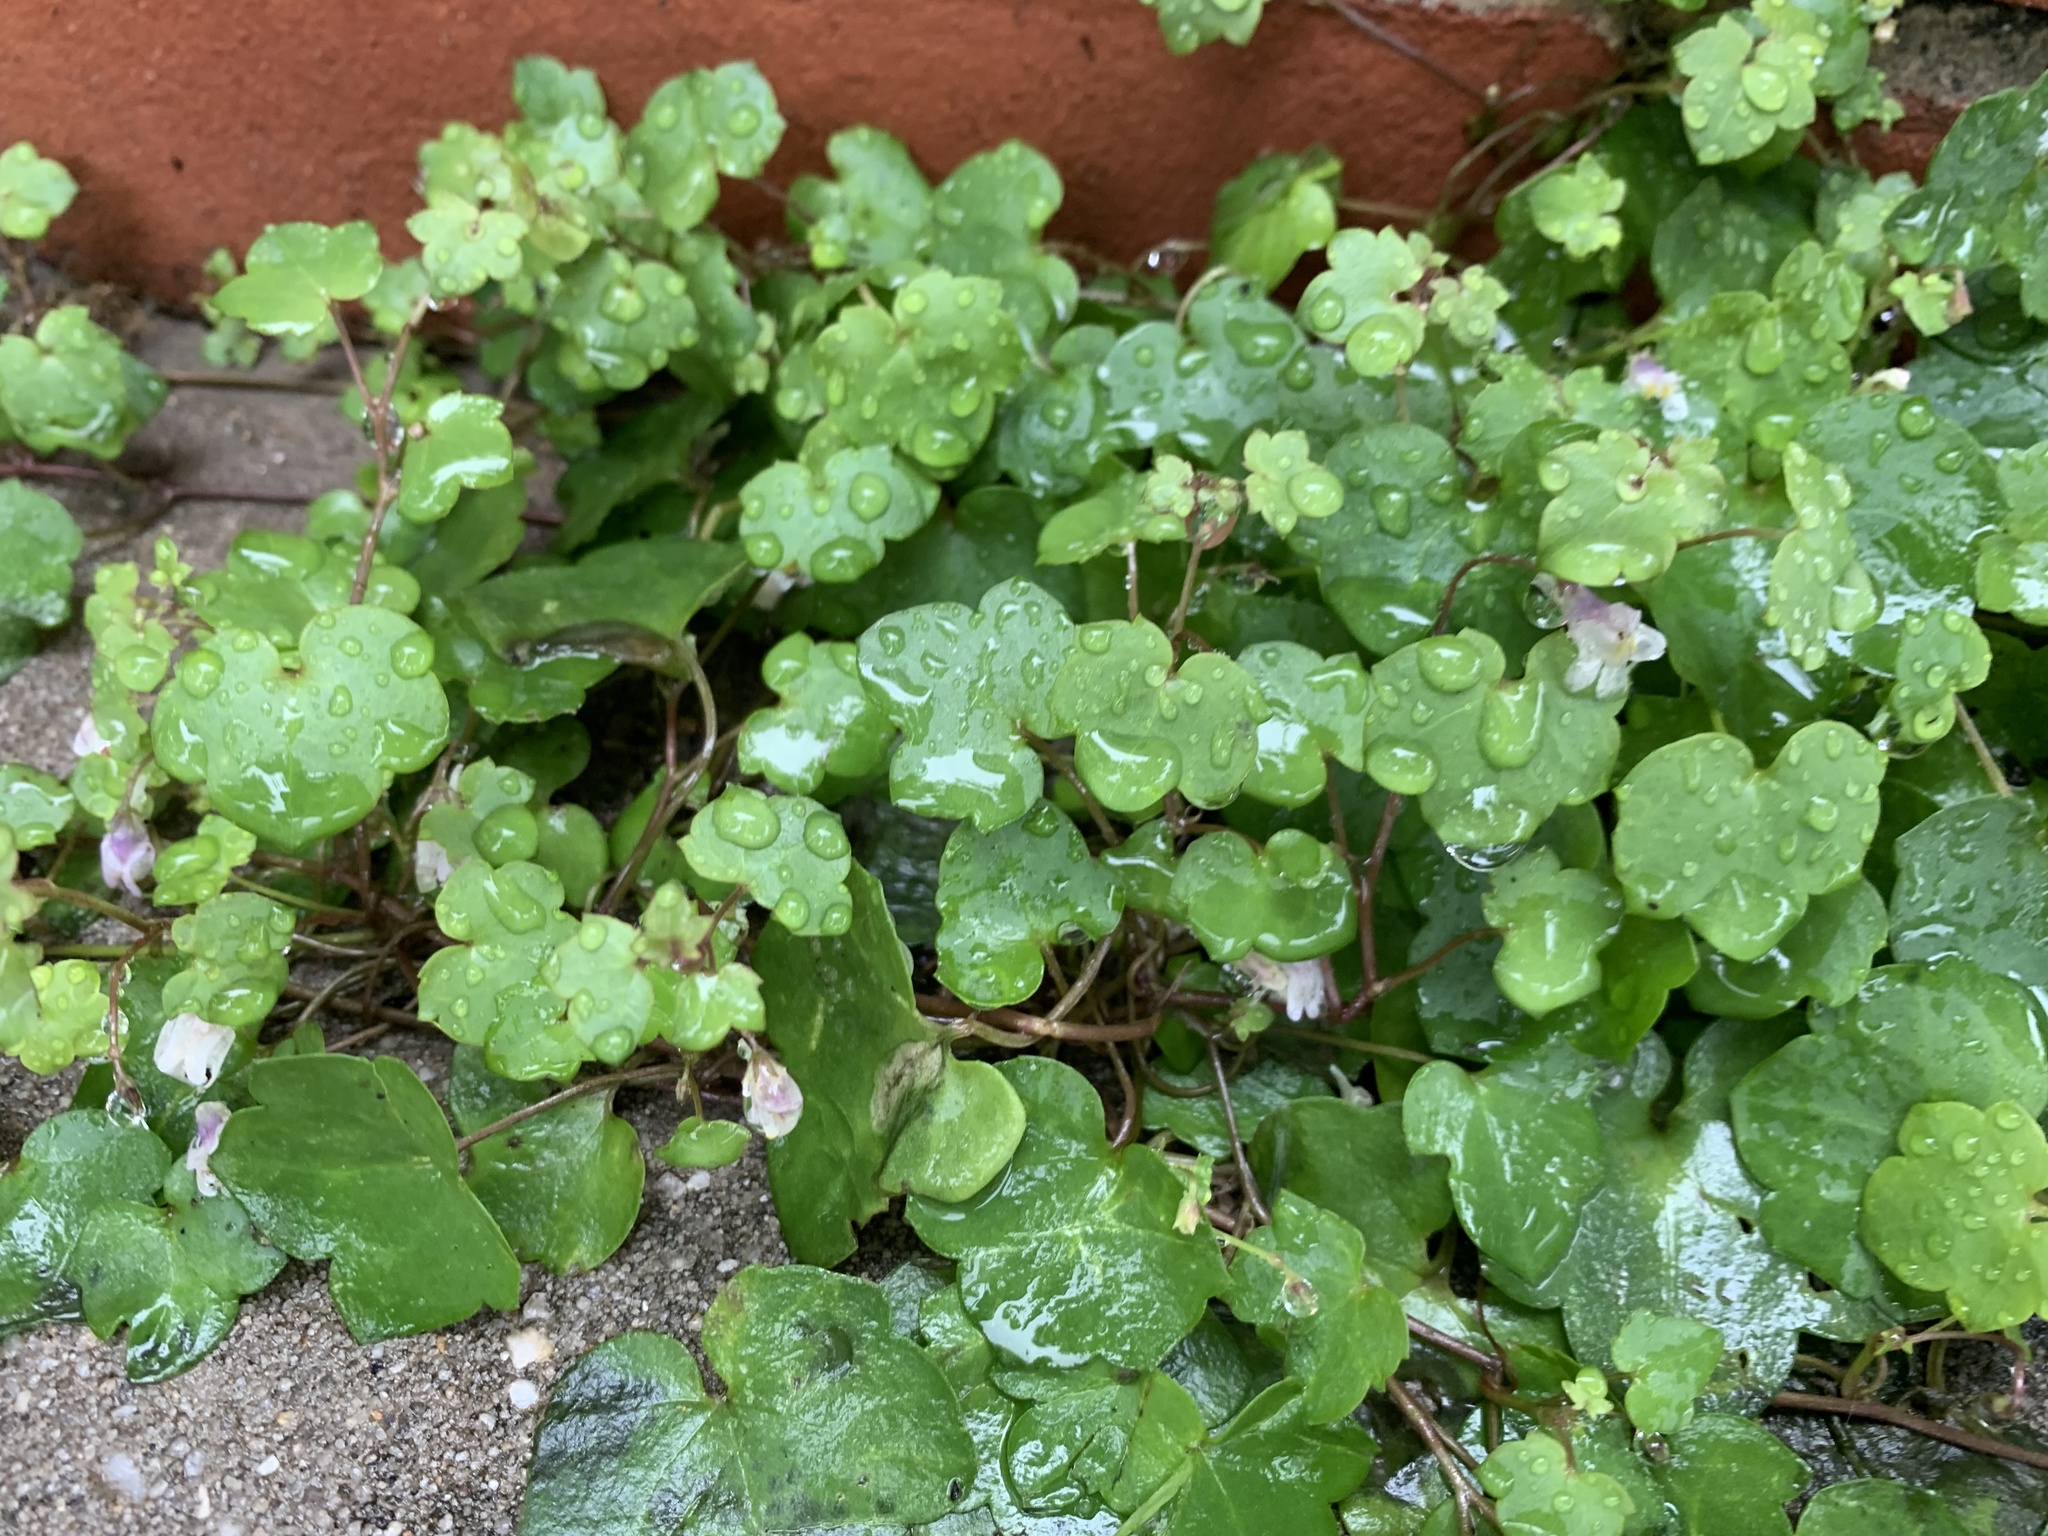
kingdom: Plantae
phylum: Tracheophyta
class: Magnoliopsida
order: Lamiales
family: Plantaginaceae
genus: Cymbalaria
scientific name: Cymbalaria muralis
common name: Ivy-leaved toadflax
